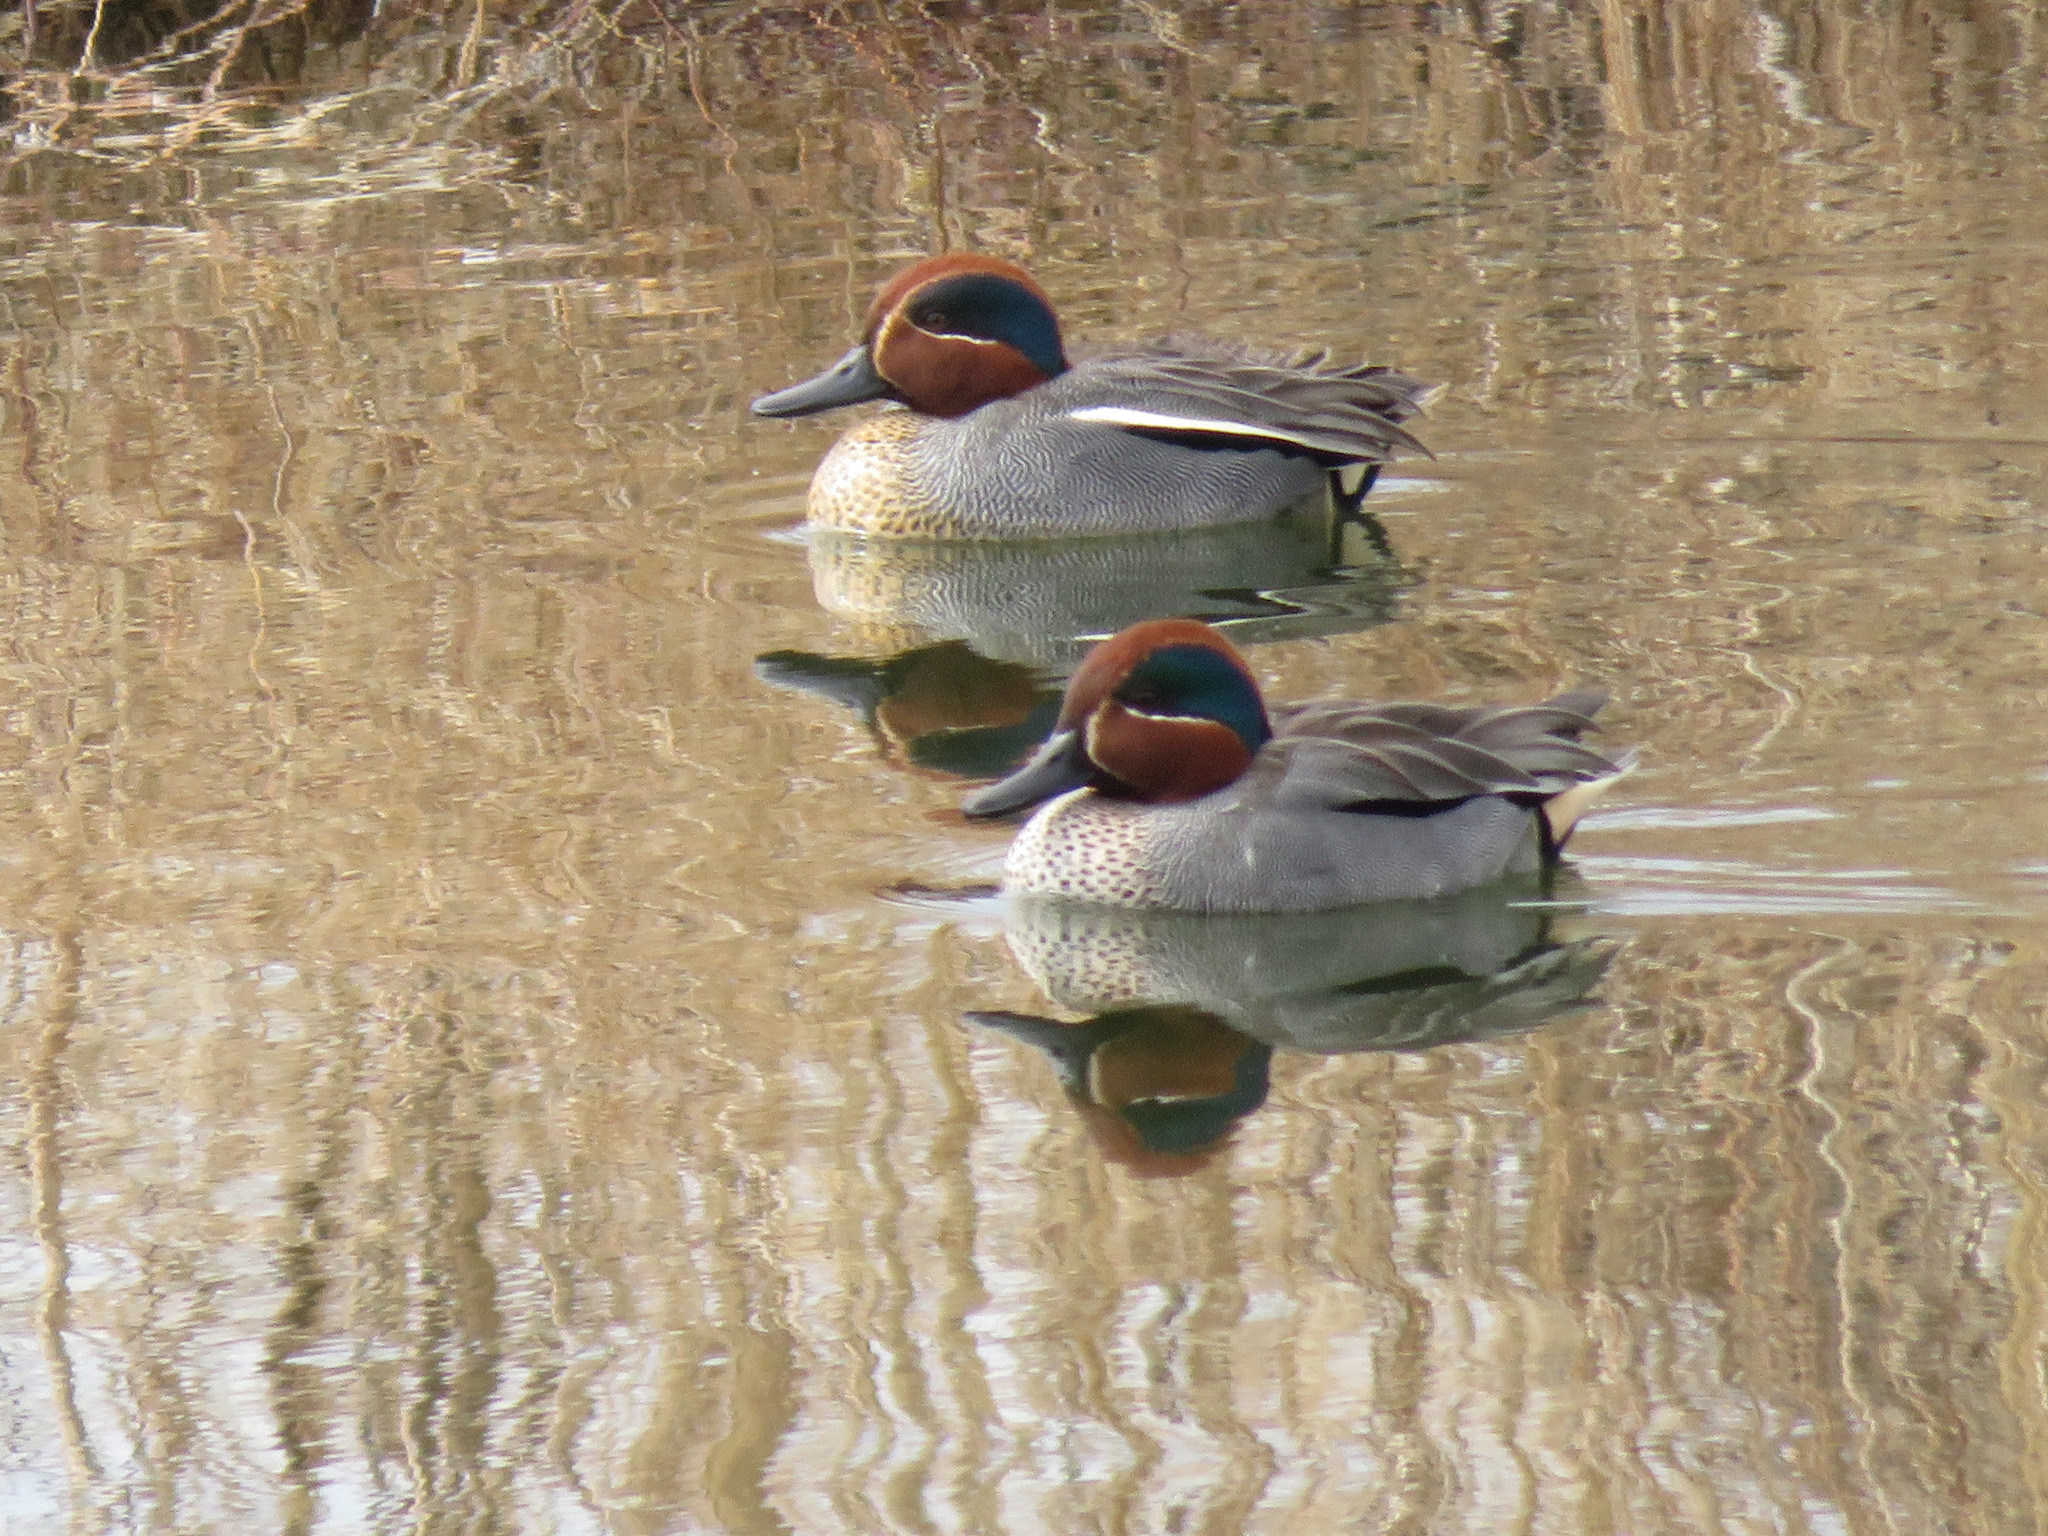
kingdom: Animalia
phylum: Chordata
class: Aves
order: Anseriformes
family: Anatidae
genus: Anas
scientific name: Anas crecca
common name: Eurasian teal
